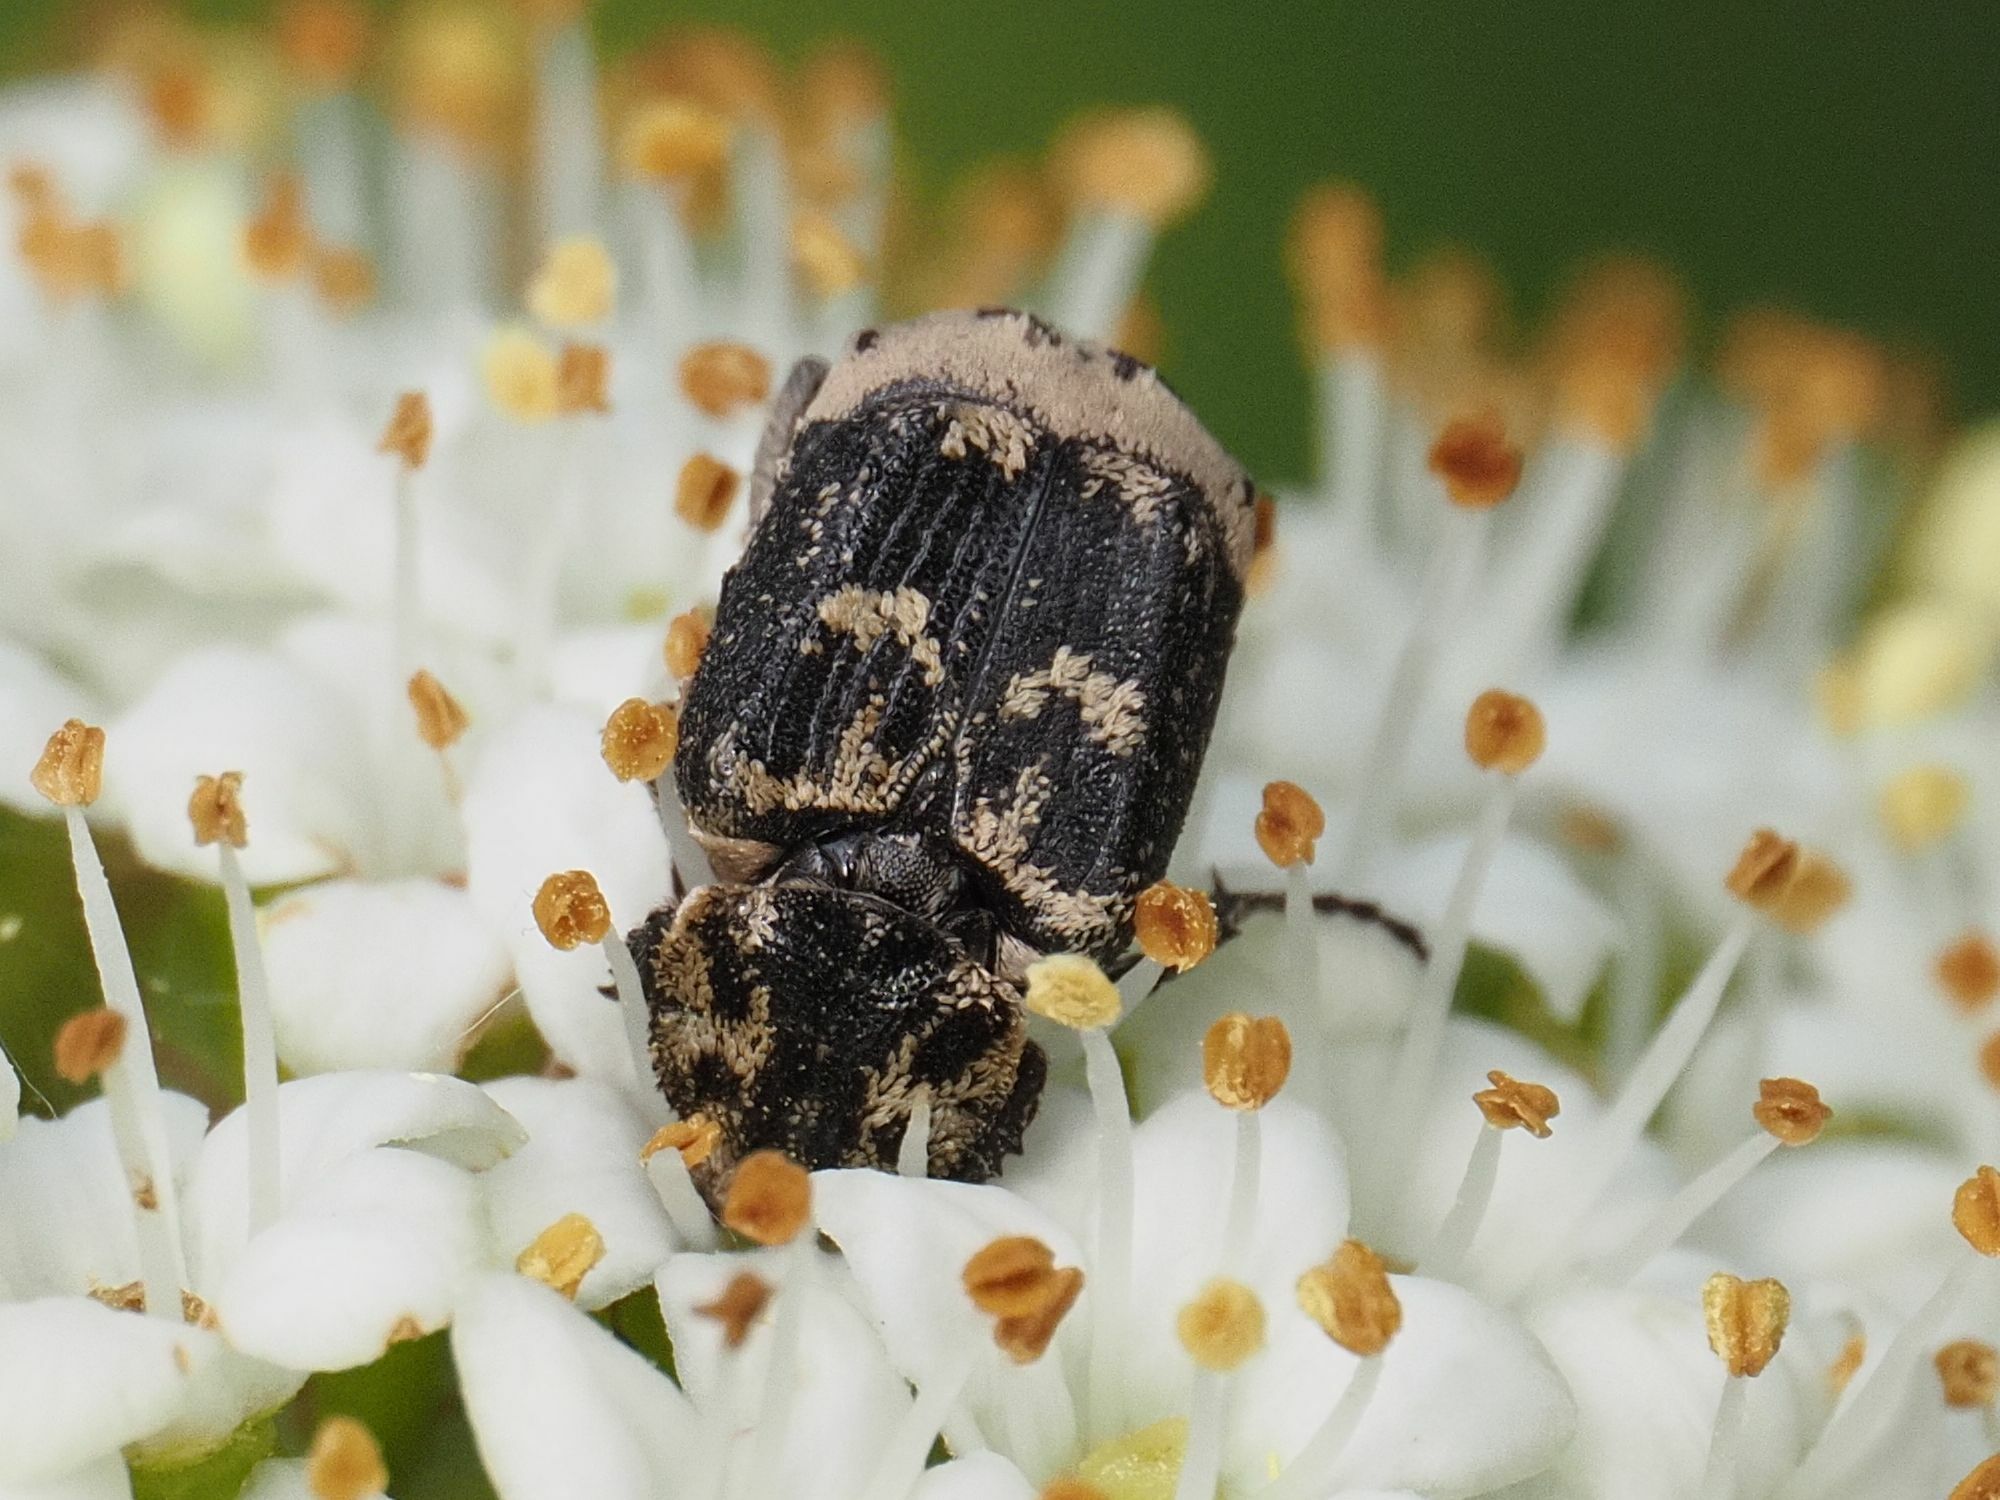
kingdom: Animalia
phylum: Arthropoda
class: Insecta
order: Coleoptera
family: Scarabaeidae
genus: Valgus
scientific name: Valgus hemipterus
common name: Bug flower chafer
